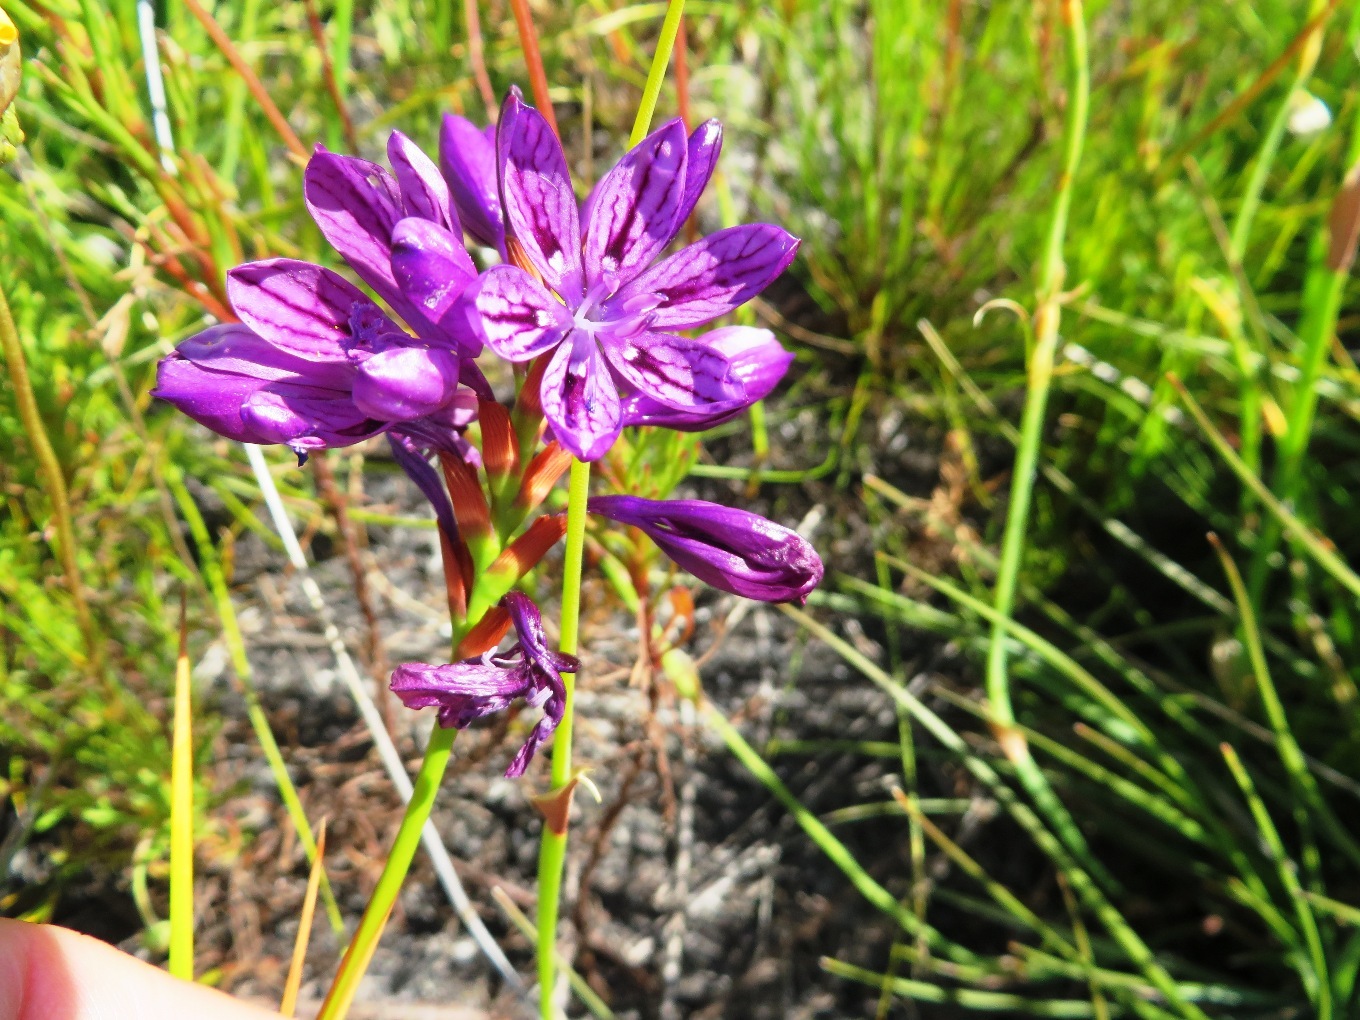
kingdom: Plantae
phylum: Tracheophyta
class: Liliopsida
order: Asparagales
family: Iridaceae
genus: Thereianthus
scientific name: Thereianthus bracteolatus
